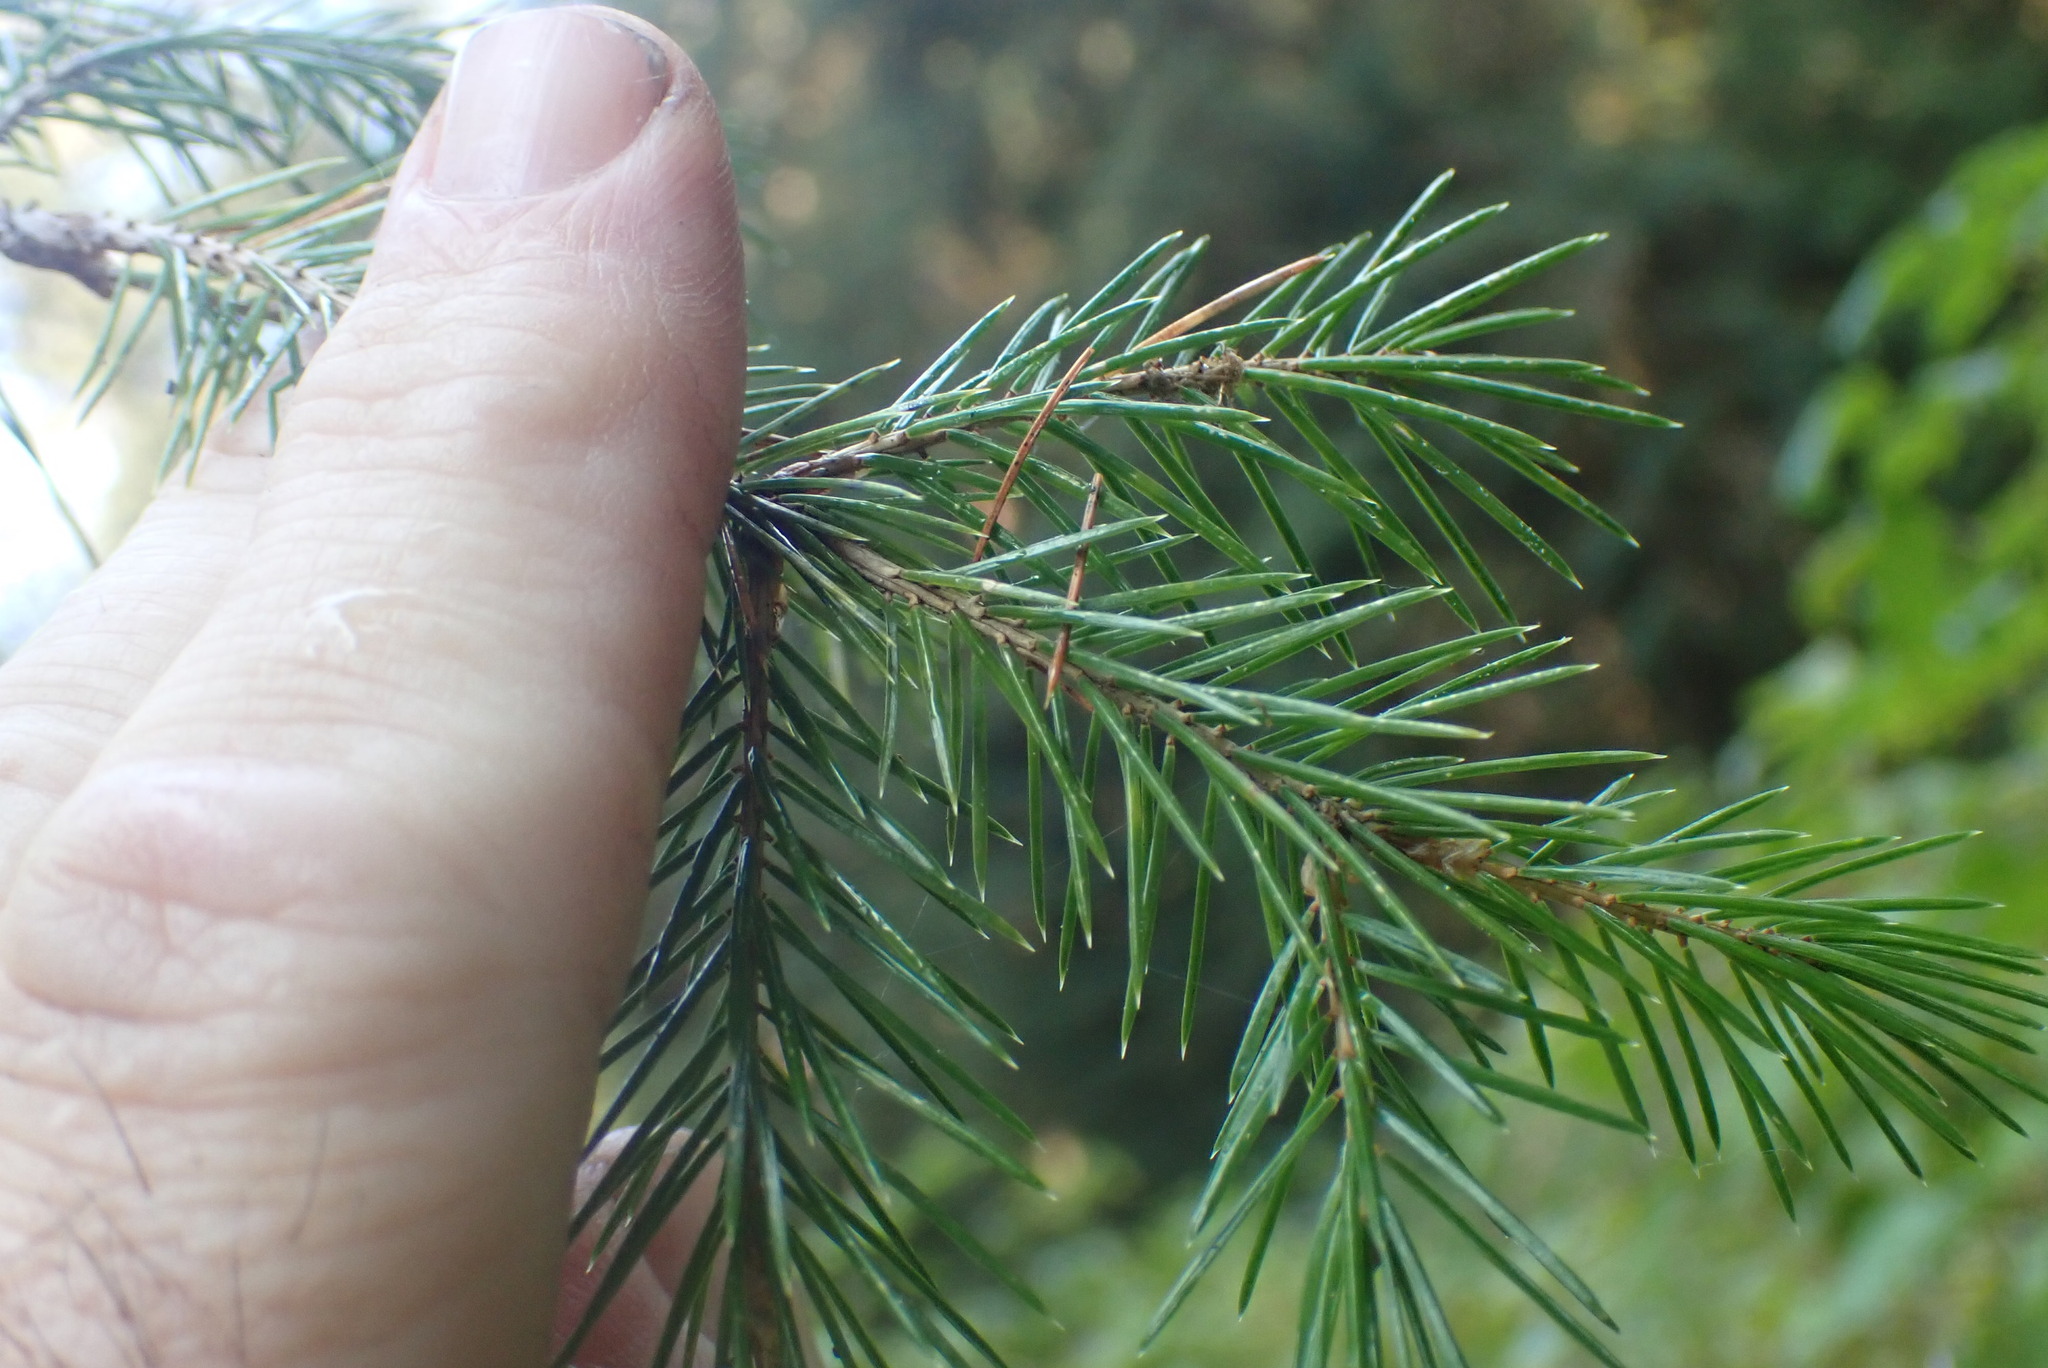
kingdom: Plantae
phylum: Tracheophyta
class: Pinopsida
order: Pinales
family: Pinaceae
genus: Picea
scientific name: Picea sitchensis
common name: Sitka spruce
